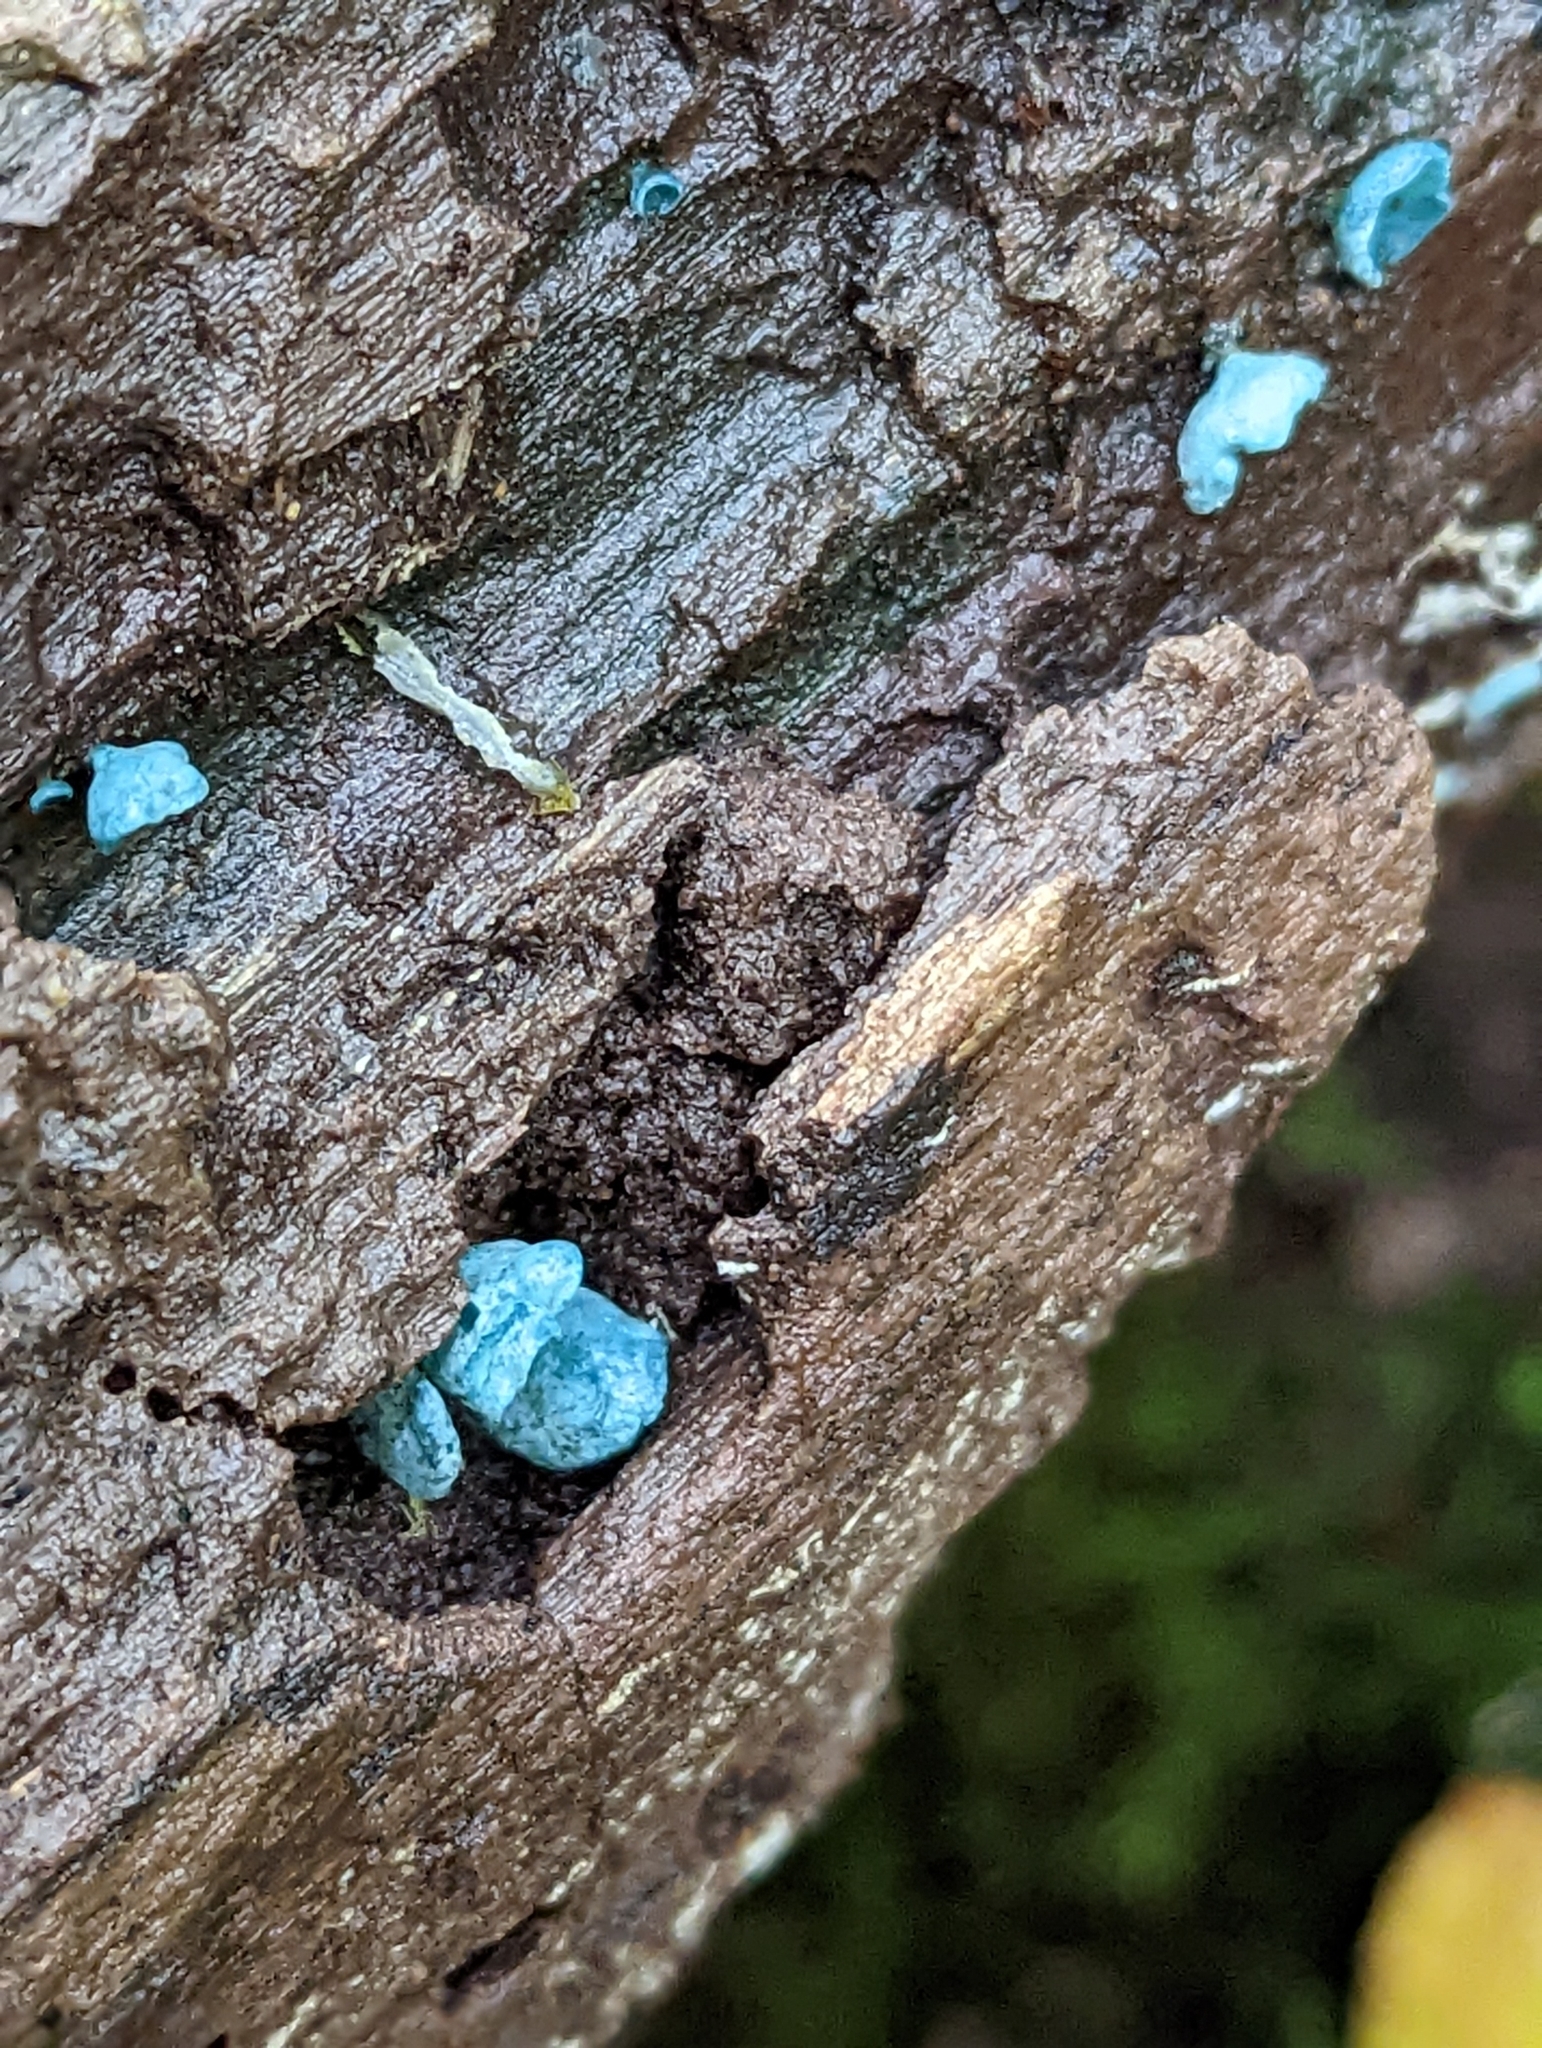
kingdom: Fungi
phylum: Ascomycota
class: Leotiomycetes
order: Helotiales
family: Chlorociboriaceae
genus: Chlorociboria
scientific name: Chlorociboria aeruginascens
